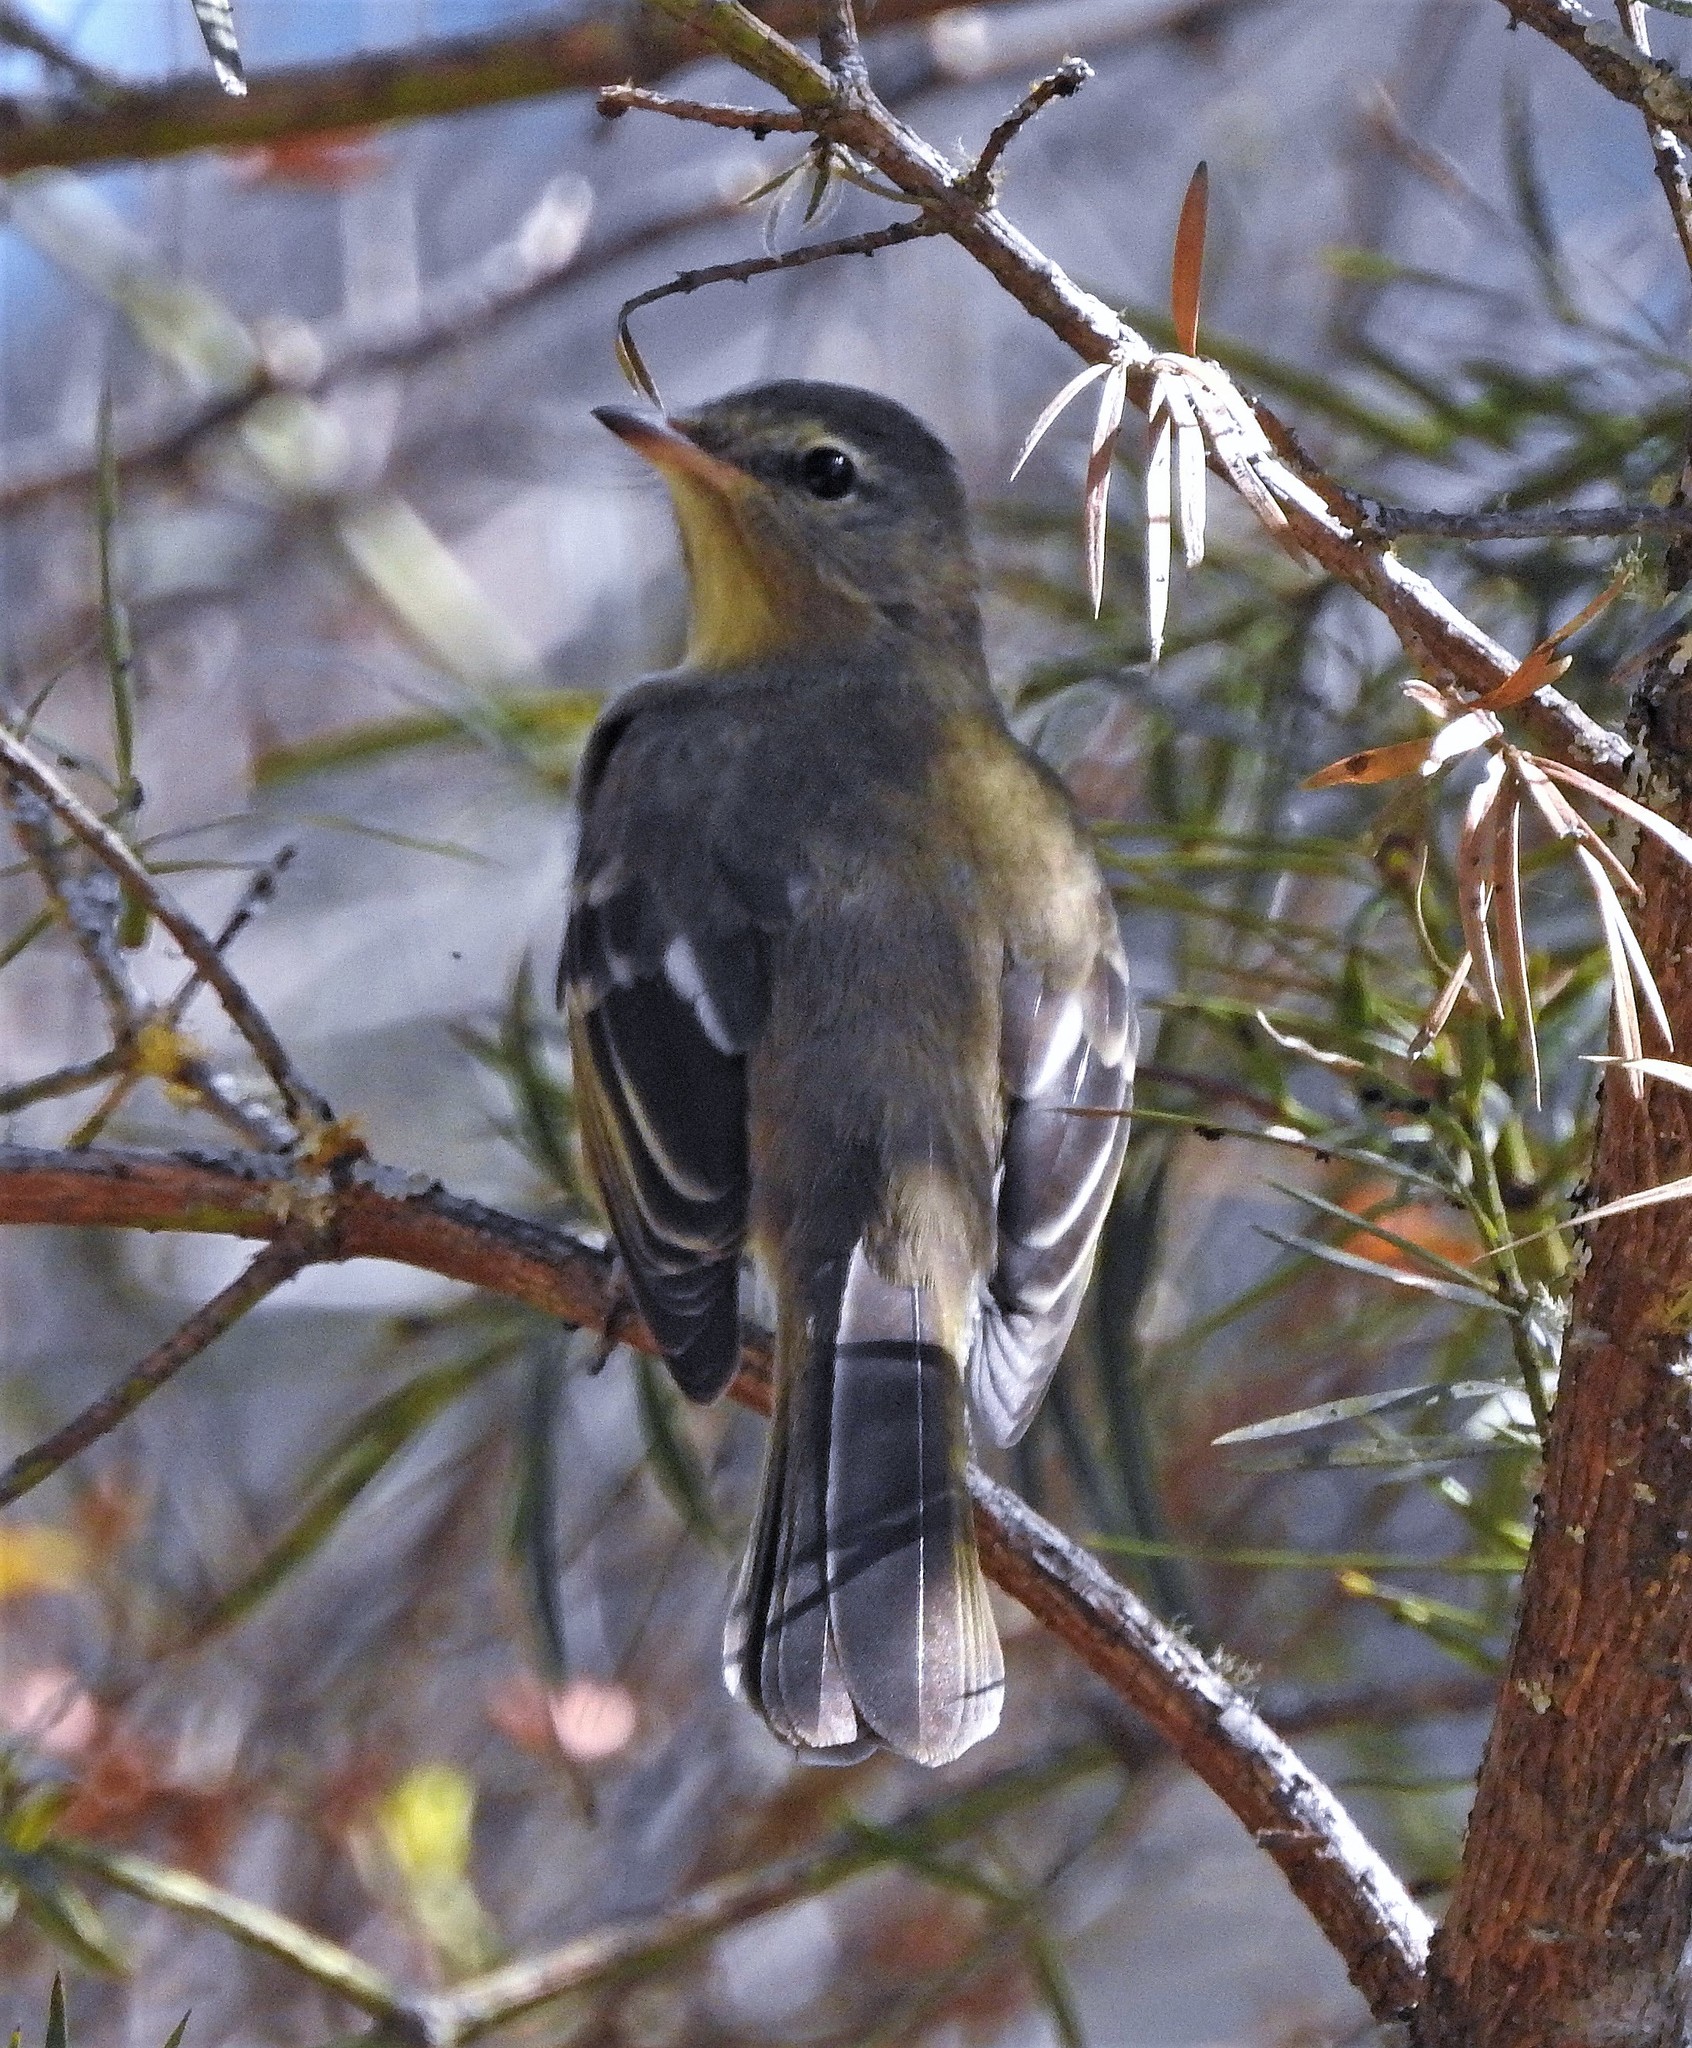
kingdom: Animalia
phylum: Chordata
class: Aves
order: Passeriformes
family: Tyrannidae
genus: Elaenia
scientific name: Elaenia obscura
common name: Highland elaenia
